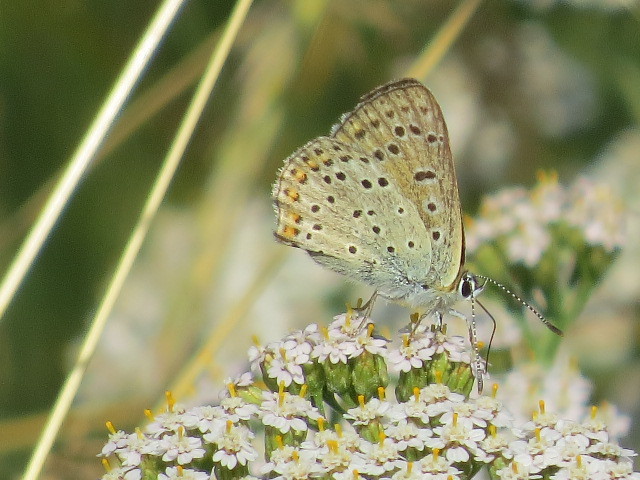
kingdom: Animalia
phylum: Arthropoda
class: Insecta
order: Lepidoptera
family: Lycaenidae
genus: Loweia
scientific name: Loweia tityrus
